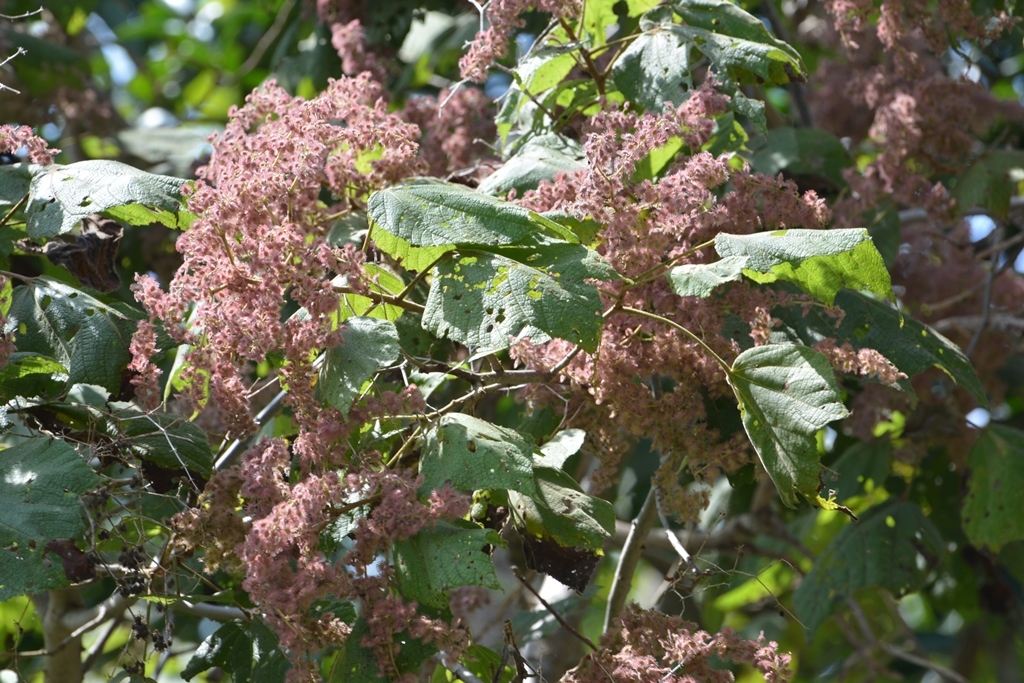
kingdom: Plantae
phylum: Tracheophyta
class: Magnoliopsida
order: Malvales
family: Malvaceae
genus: Heliocarpus
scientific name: Heliocarpus americanus
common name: White moho
